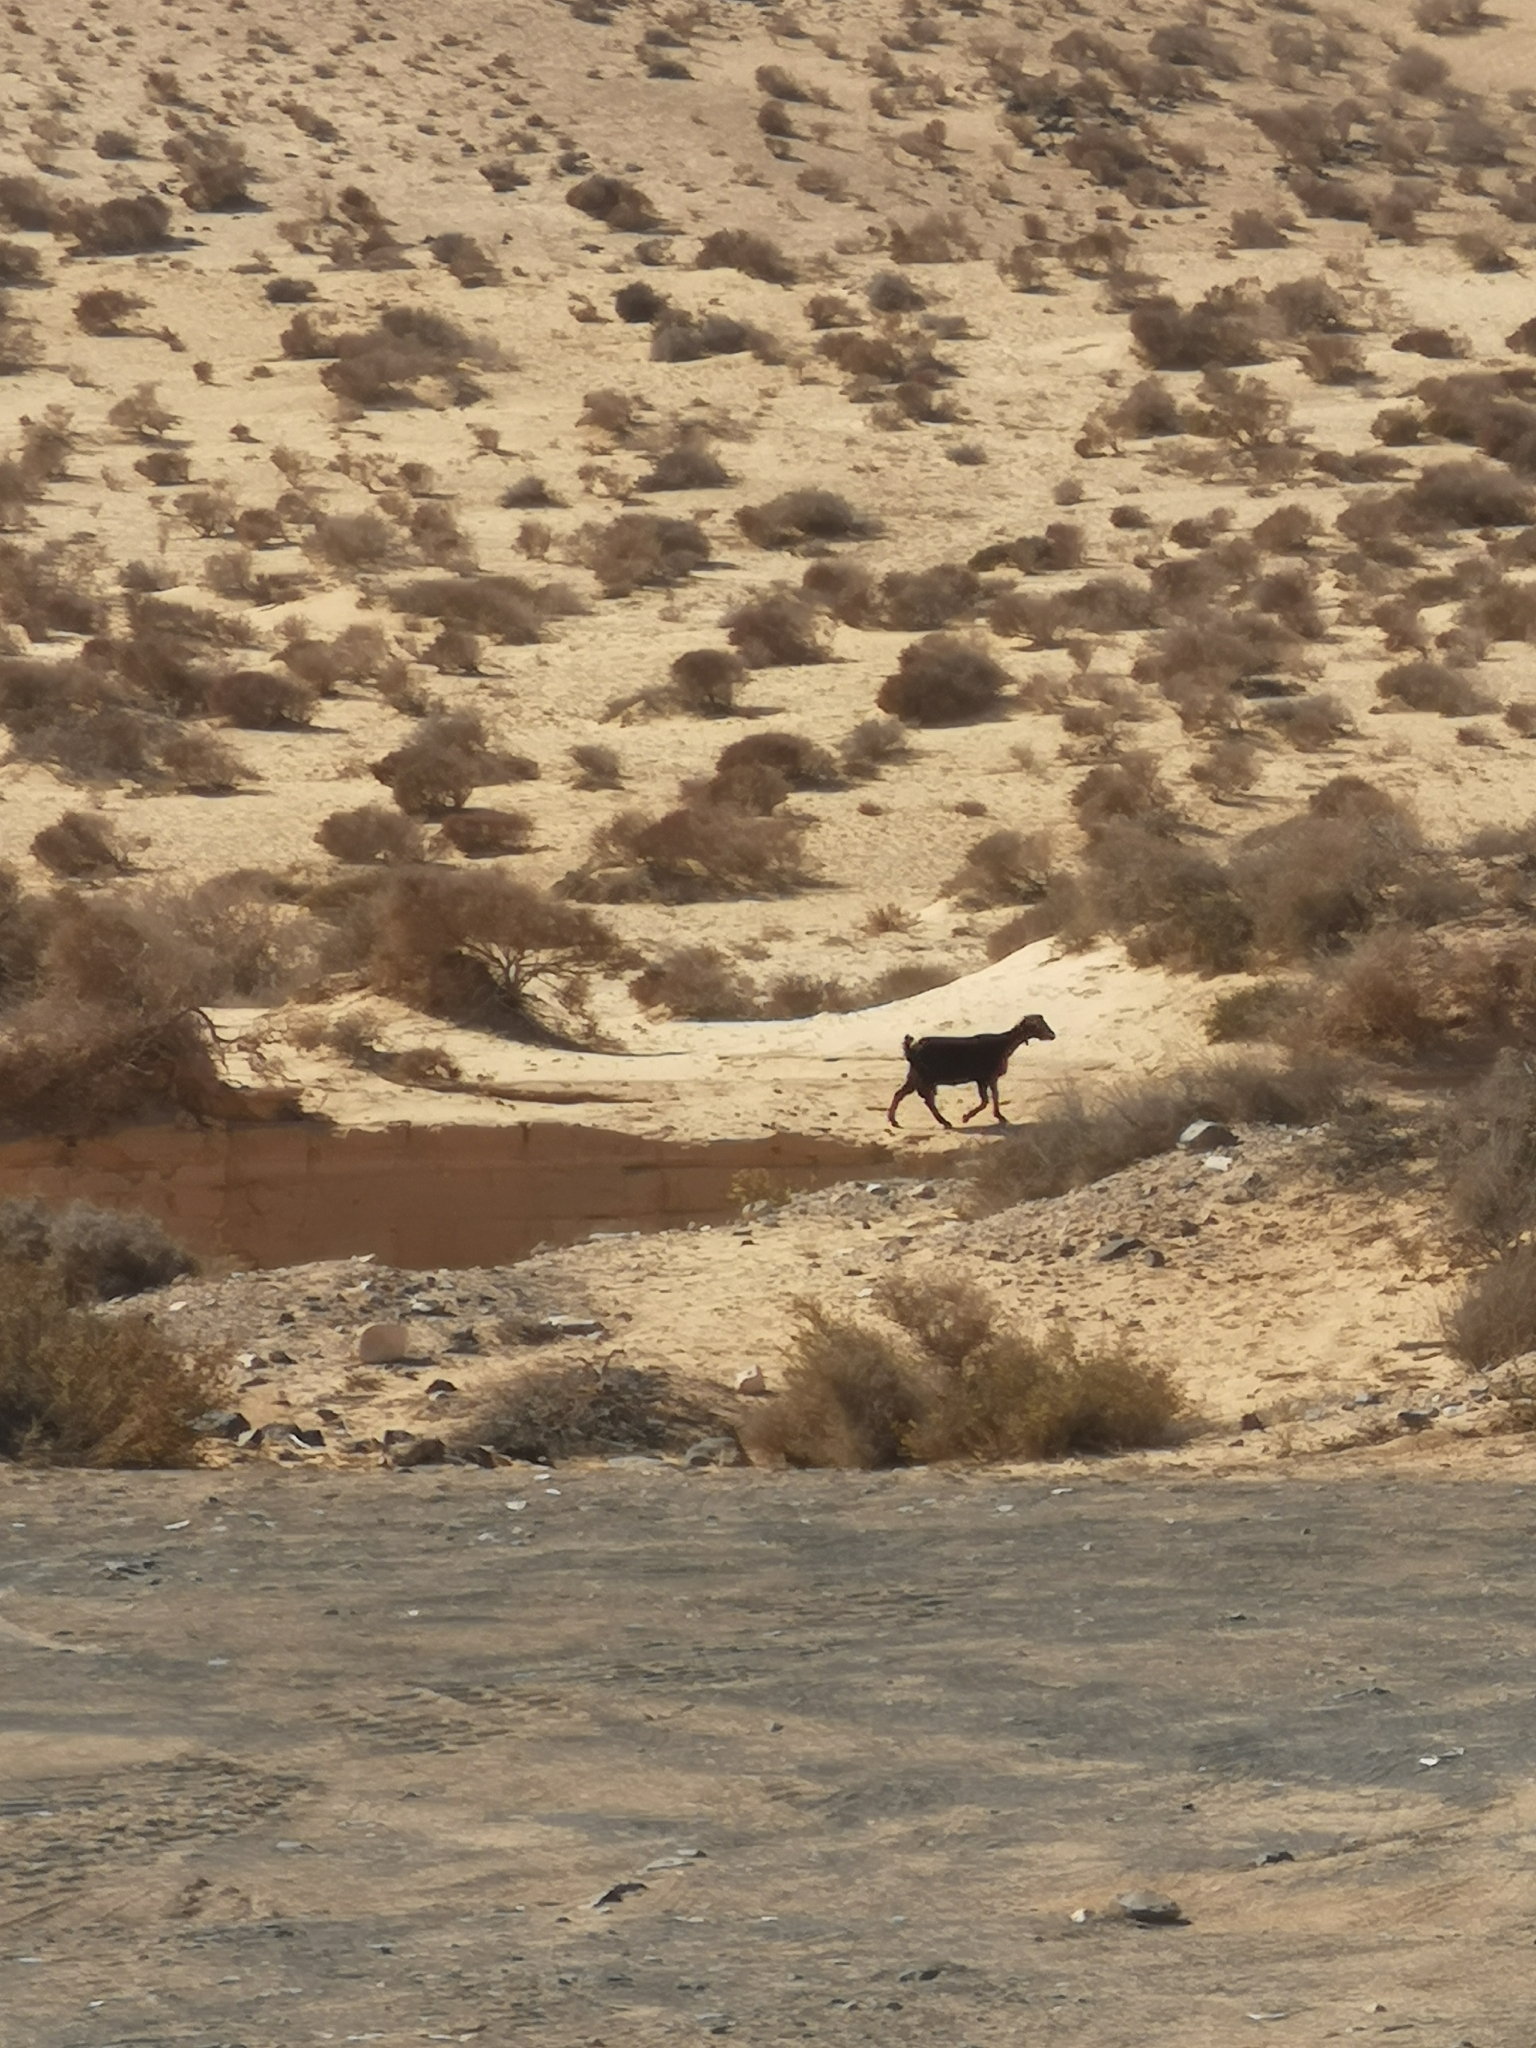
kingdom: Animalia
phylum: Chordata
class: Mammalia
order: Artiodactyla
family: Bovidae
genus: Capra
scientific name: Capra hircus
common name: Domestic goat
